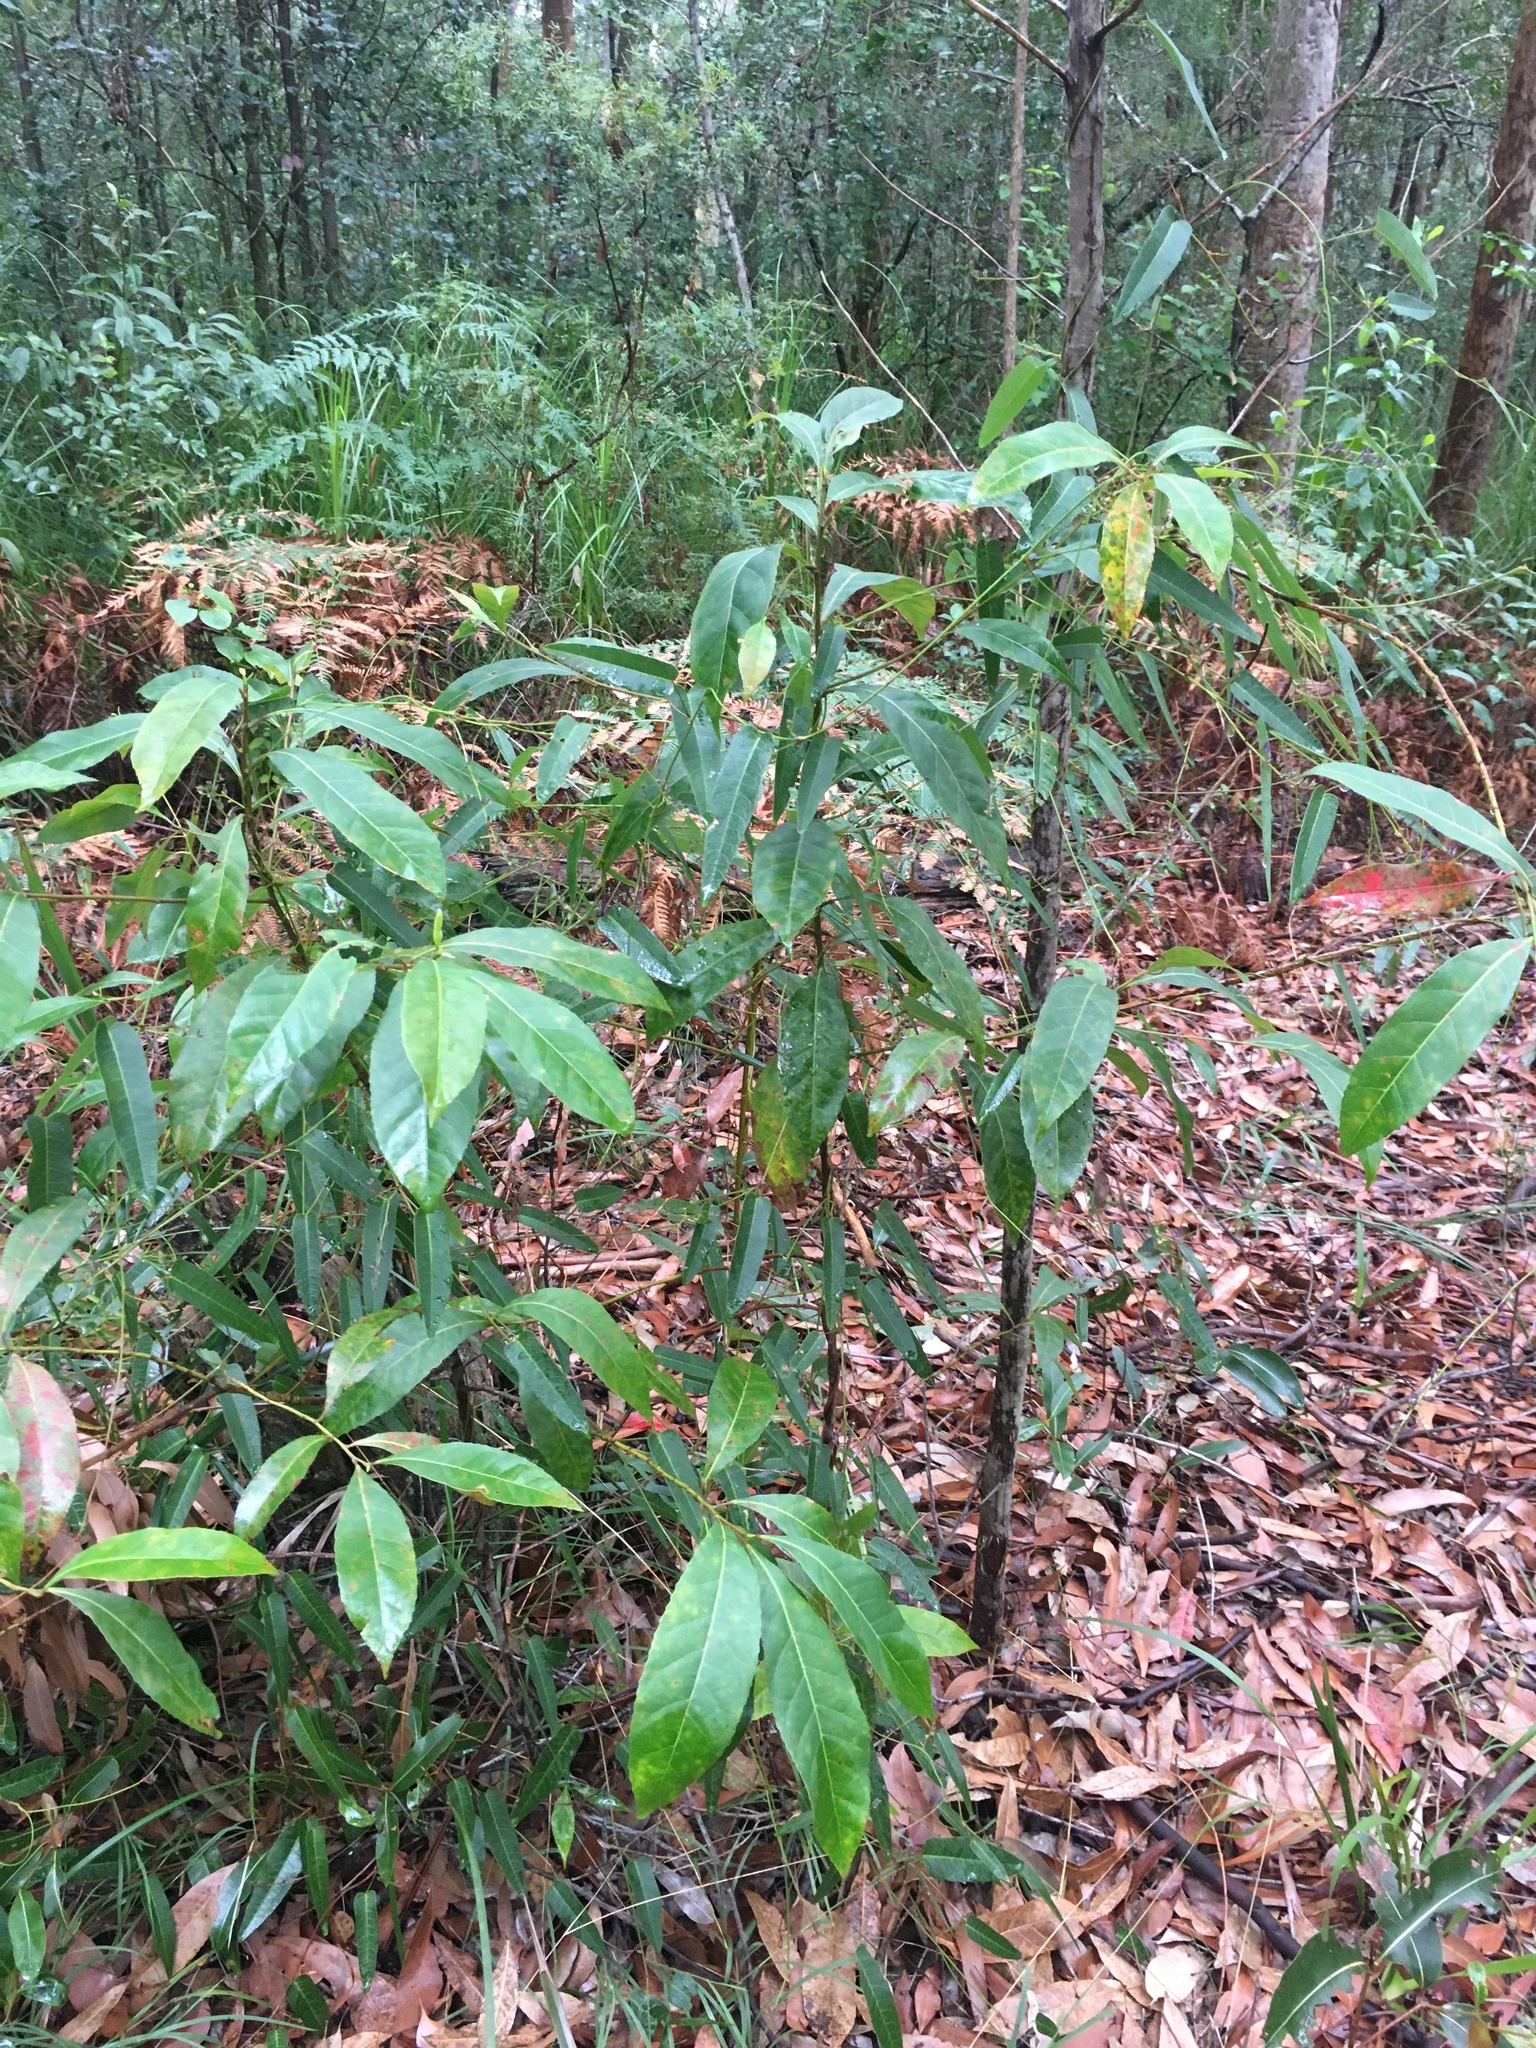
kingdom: Plantae
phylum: Tracheophyta
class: Magnoliopsida
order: Fabales
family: Fabaceae
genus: Hardenbergia
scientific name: Hardenbergia violacea
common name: Coral-pea
